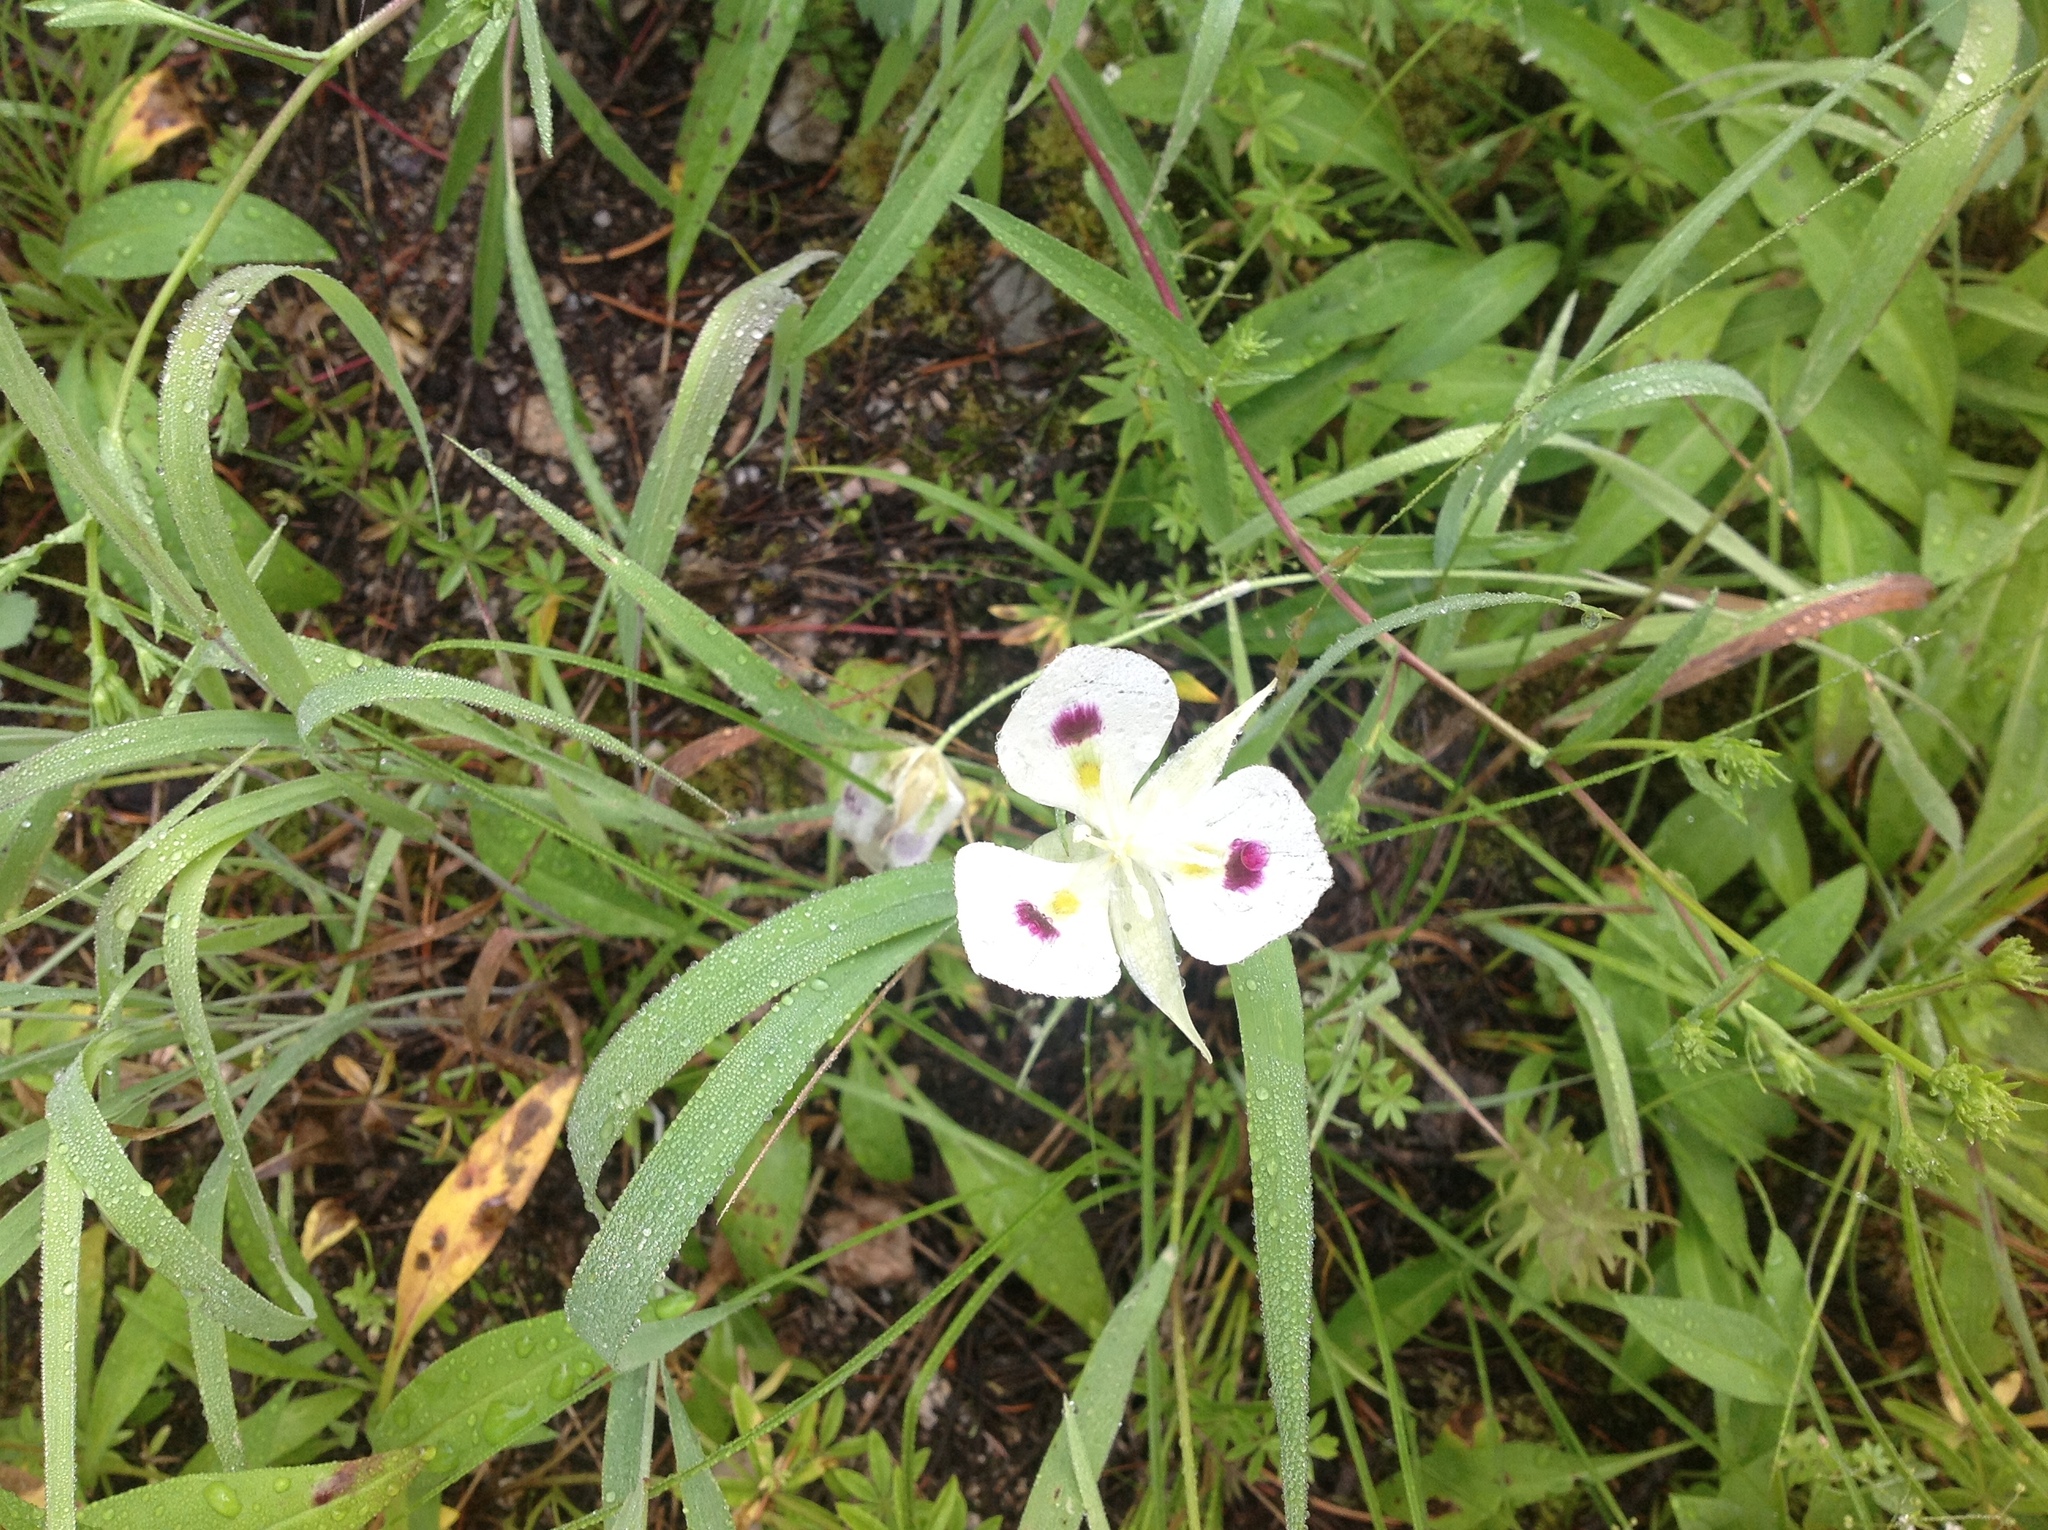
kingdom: Plantae
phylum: Tracheophyta
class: Liliopsida
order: Liliales
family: Liliaceae
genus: Calochortus
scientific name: Calochortus eurycarpus
